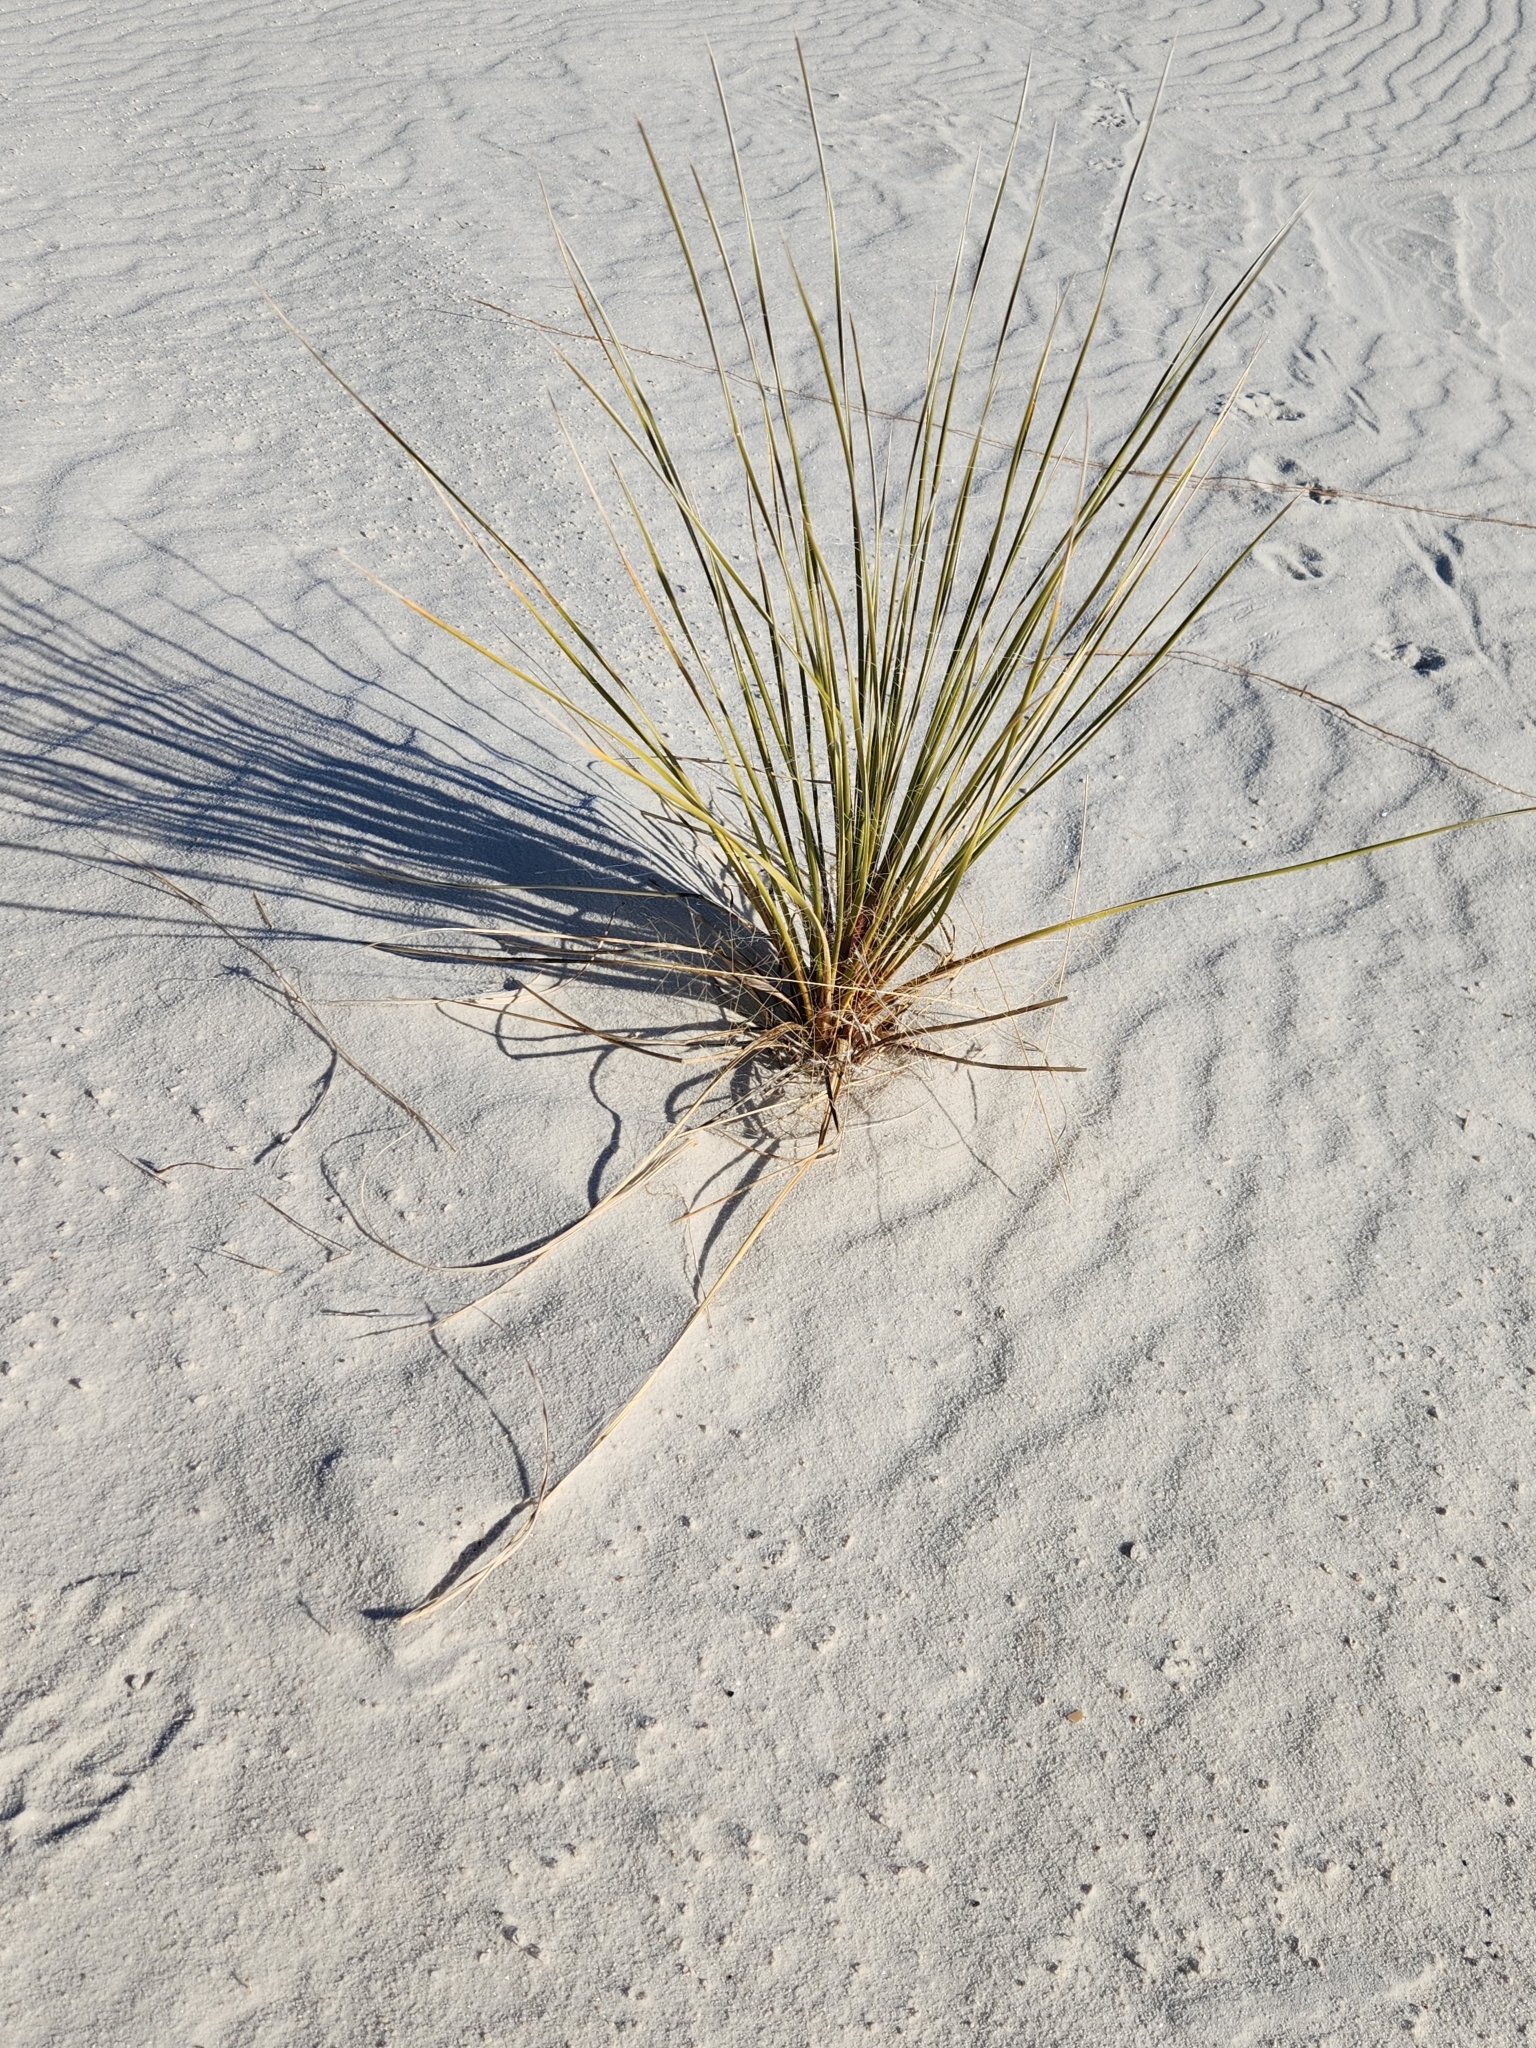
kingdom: Plantae
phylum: Tracheophyta
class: Liliopsida
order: Asparagales
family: Asparagaceae
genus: Yucca
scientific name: Yucca elata
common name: Palmella
